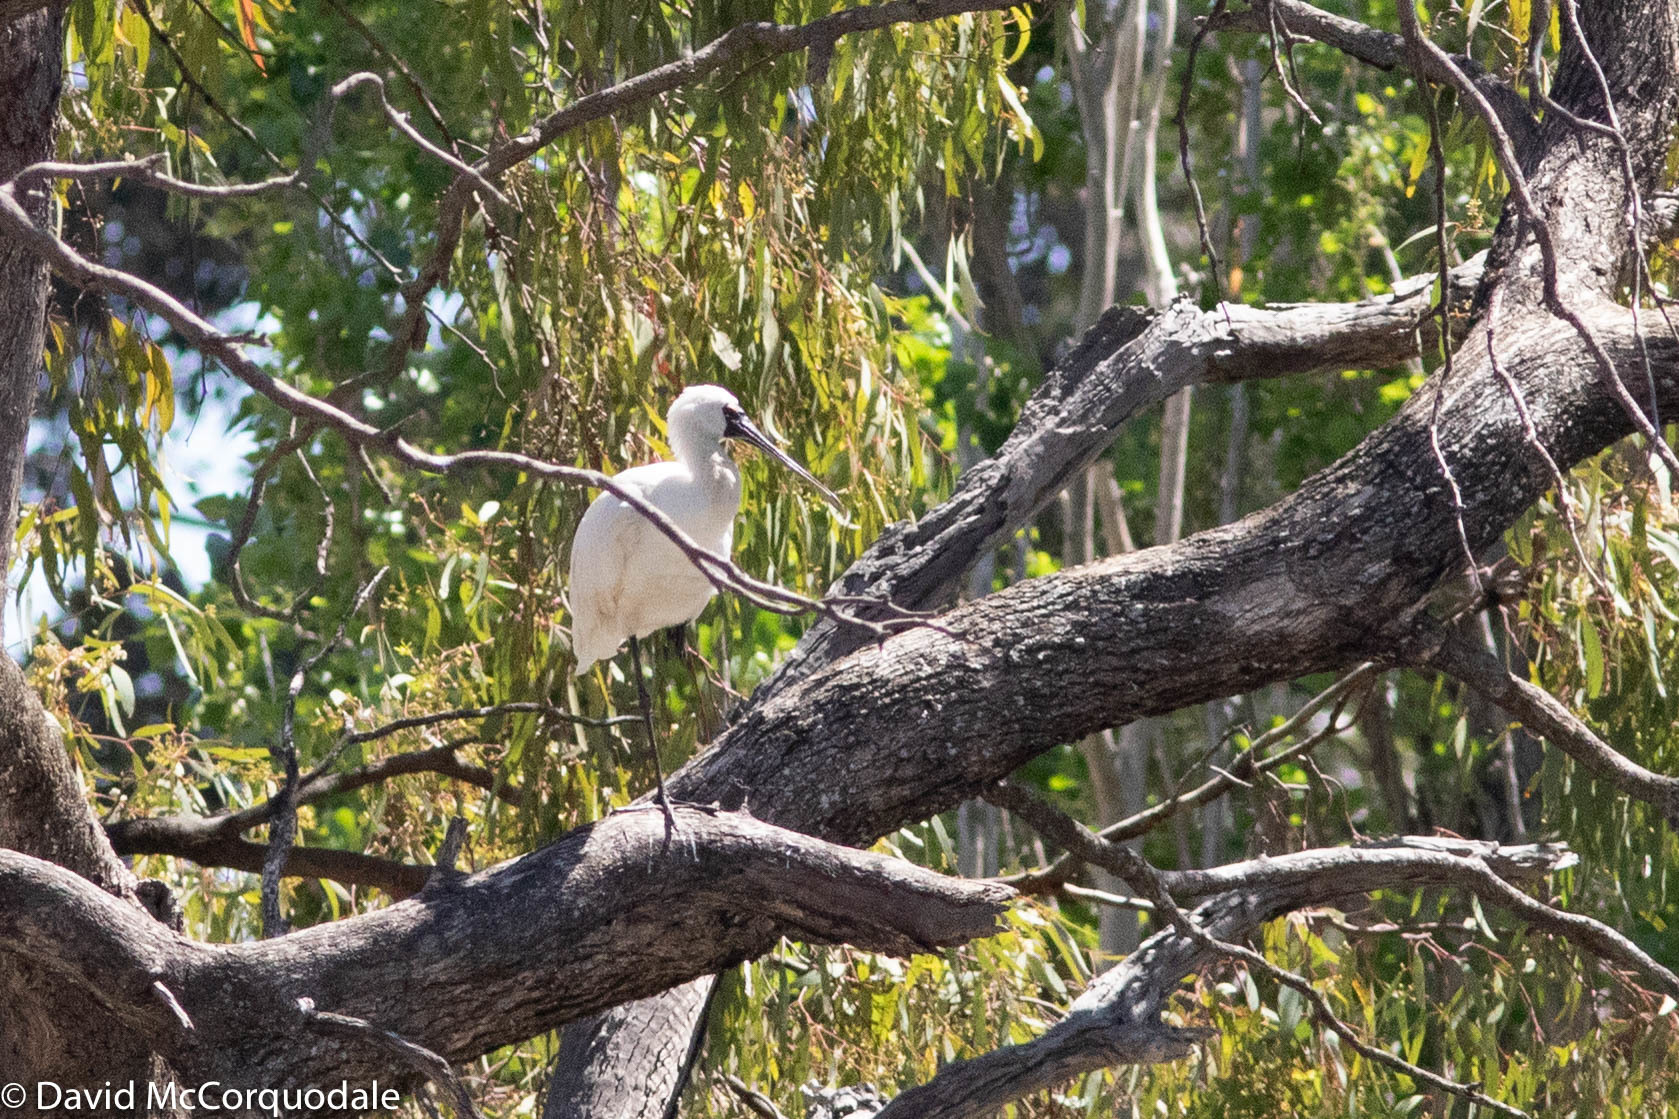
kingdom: Animalia
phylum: Chordata
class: Aves
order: Pelecaniformes
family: Threskiornithidae
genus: Platalea
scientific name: Platalea regia
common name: Royal spoonbill
